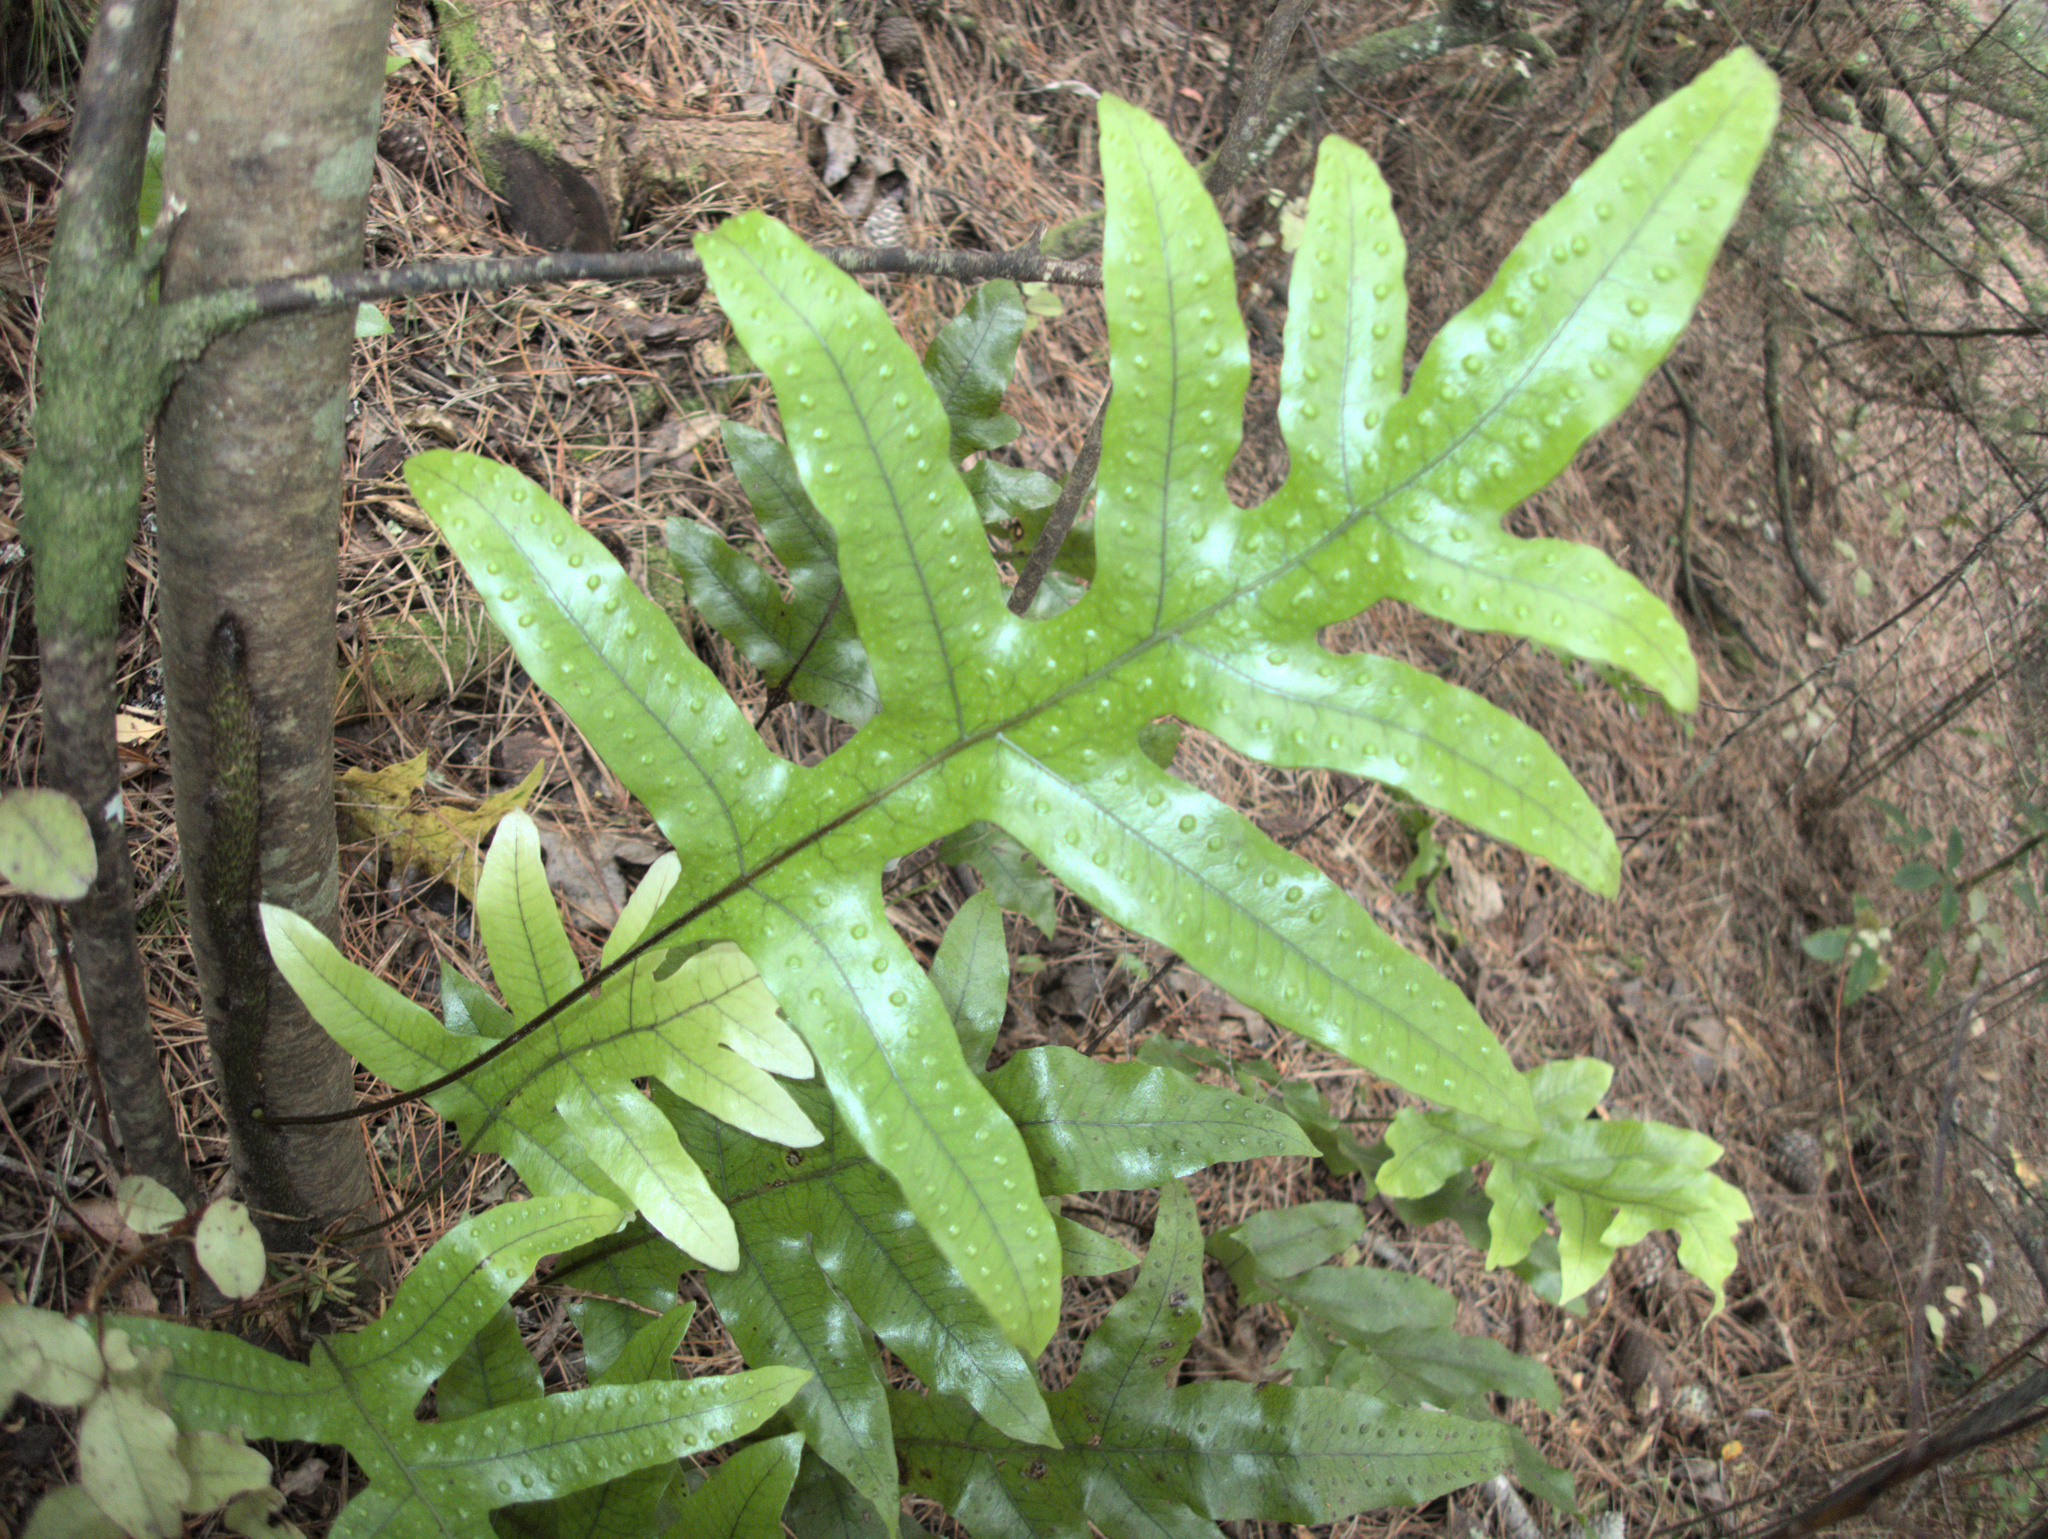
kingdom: Plantae
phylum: Tracheophyta
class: Polypodiopsida
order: Polypodiales
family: Polypodiaceae
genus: Lecanopteris
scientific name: Lecanopteris pustulata
